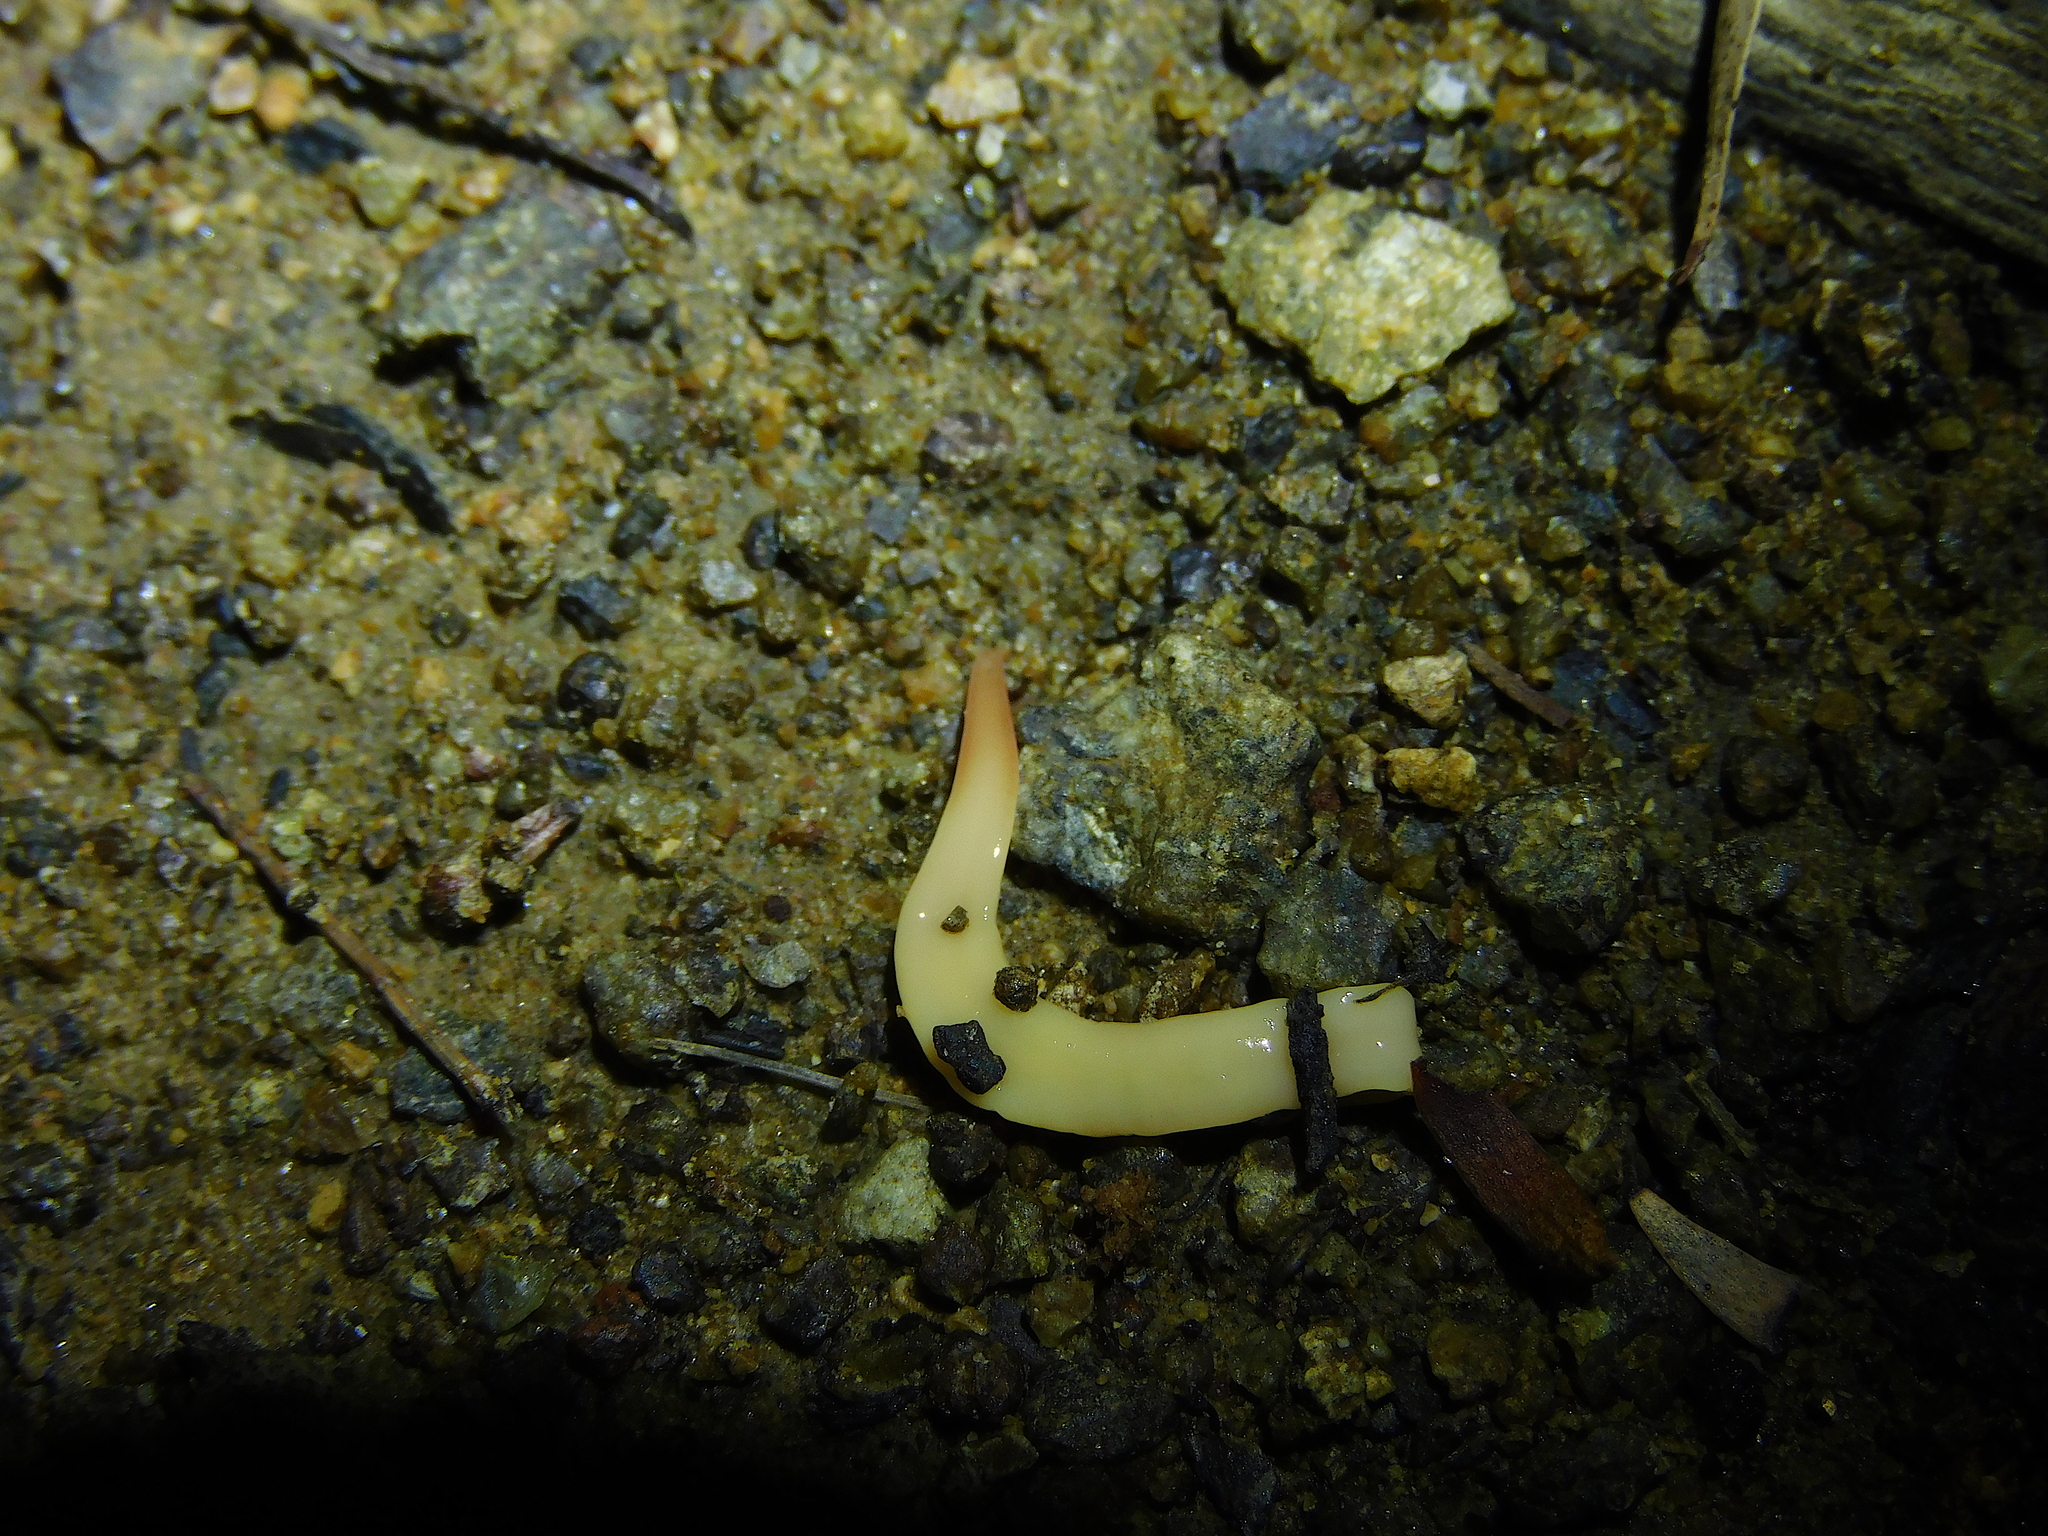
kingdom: Animalia
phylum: Platyhelminthes
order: Tricladida
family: Geoplanidae
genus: Fletchamia
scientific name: Fletchamia sugdeni
